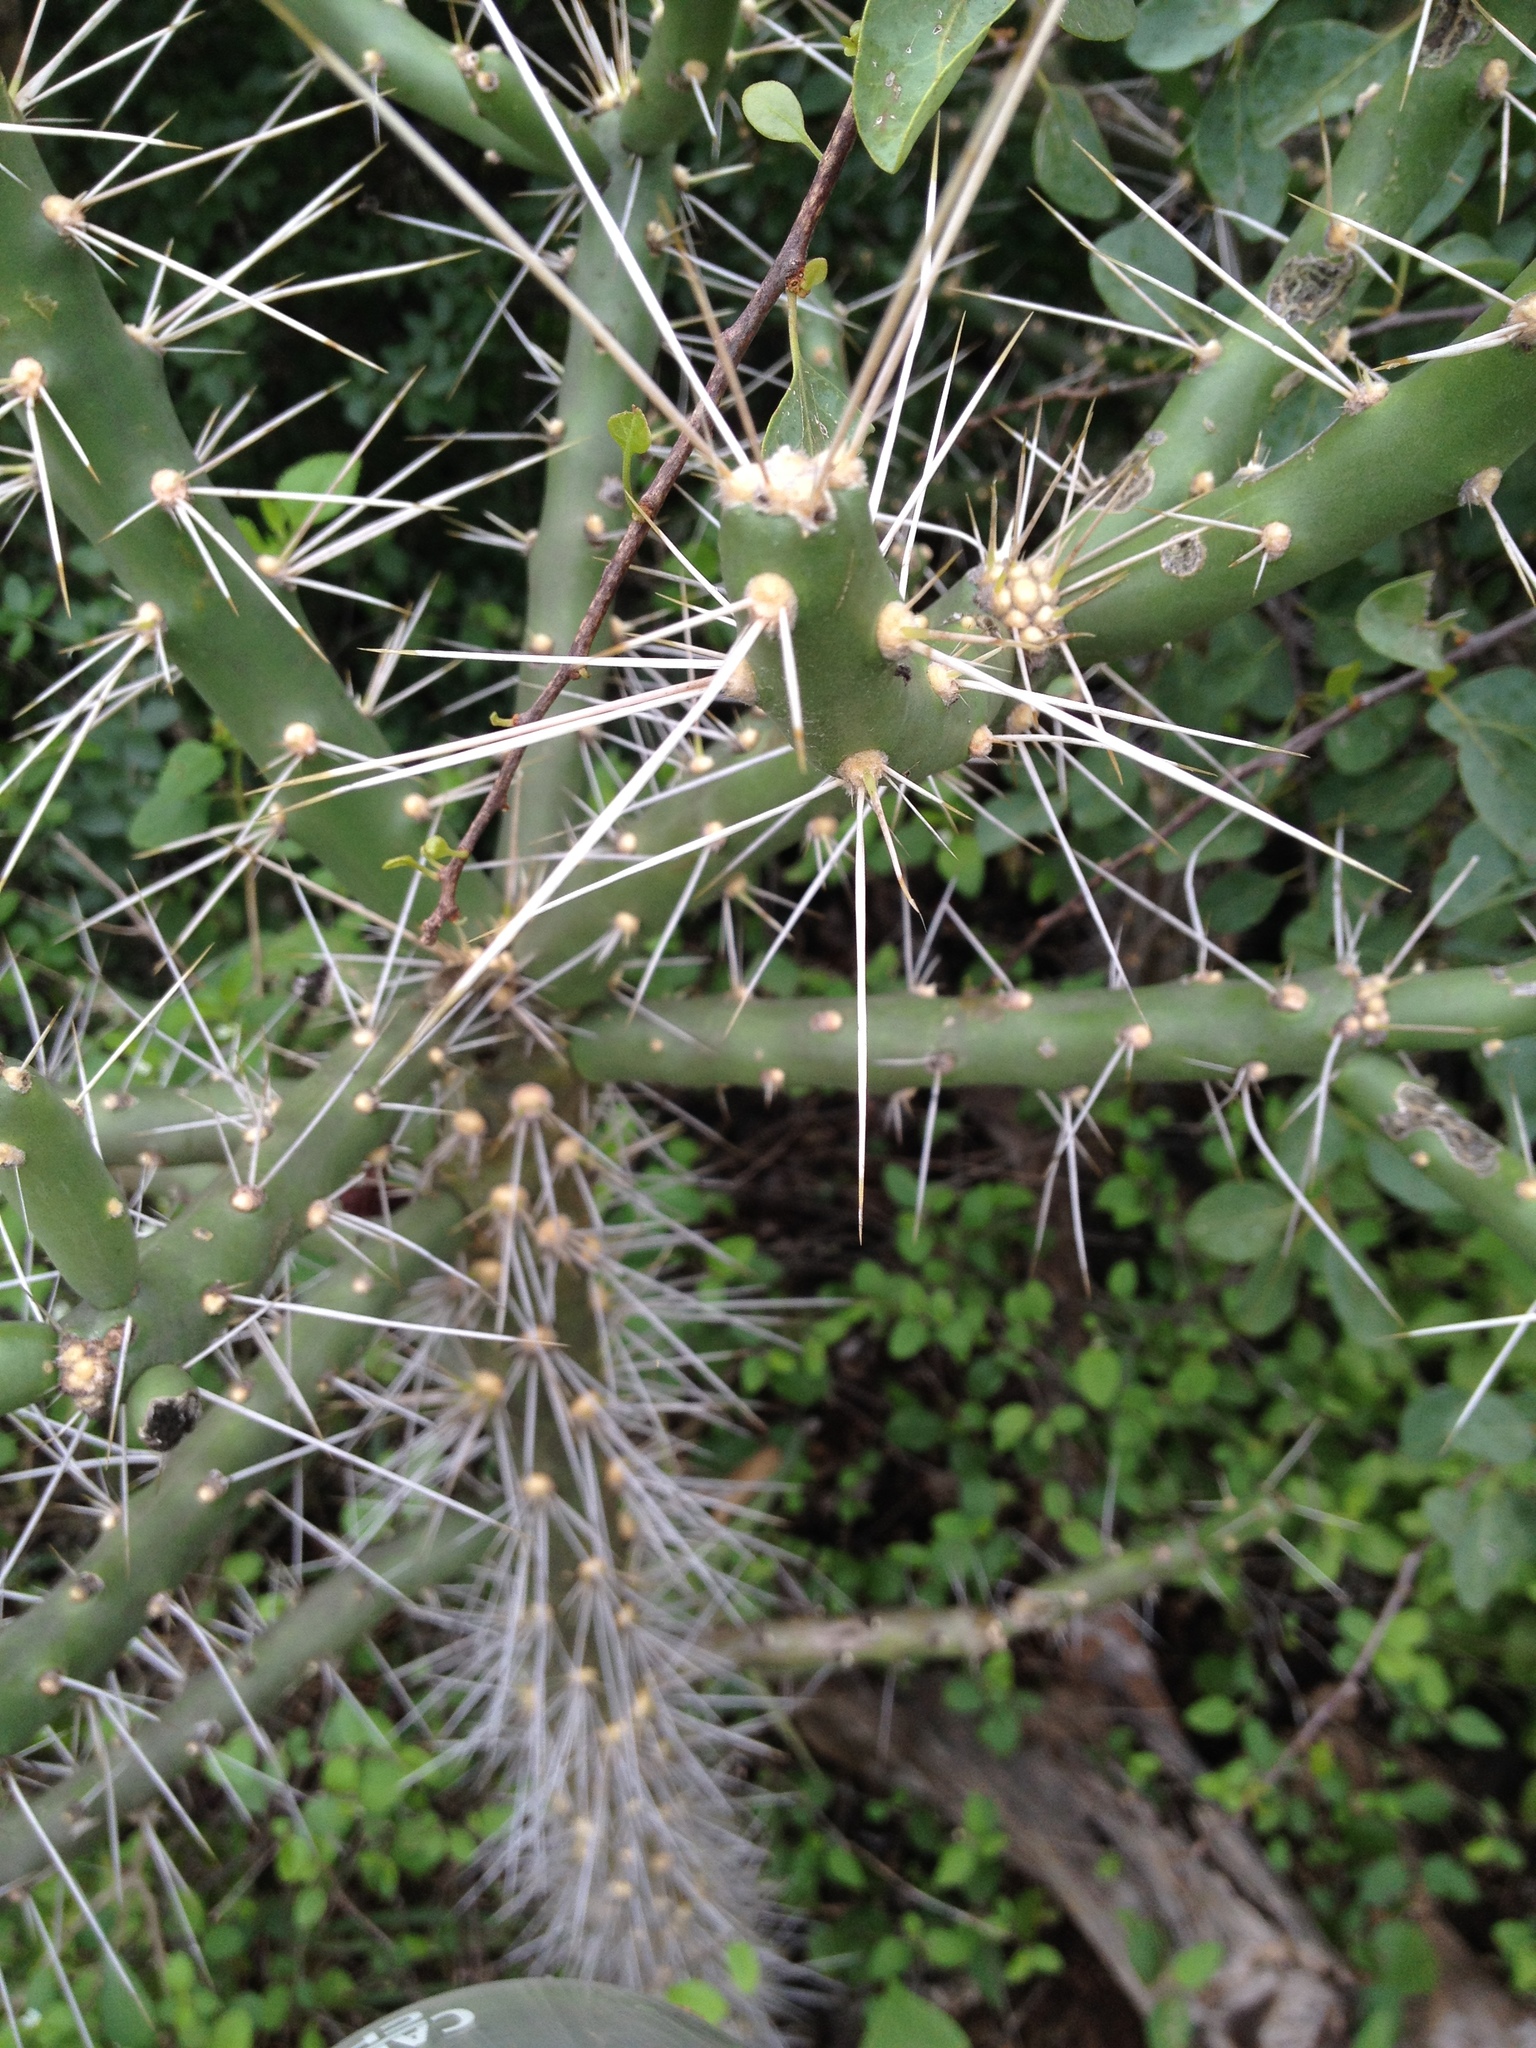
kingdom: Plantae
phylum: Tracheophyta
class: Magnoliopsida
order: Caryophyllales
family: Cactaceae
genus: Quiabentia
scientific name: Quiabentia verticillata
